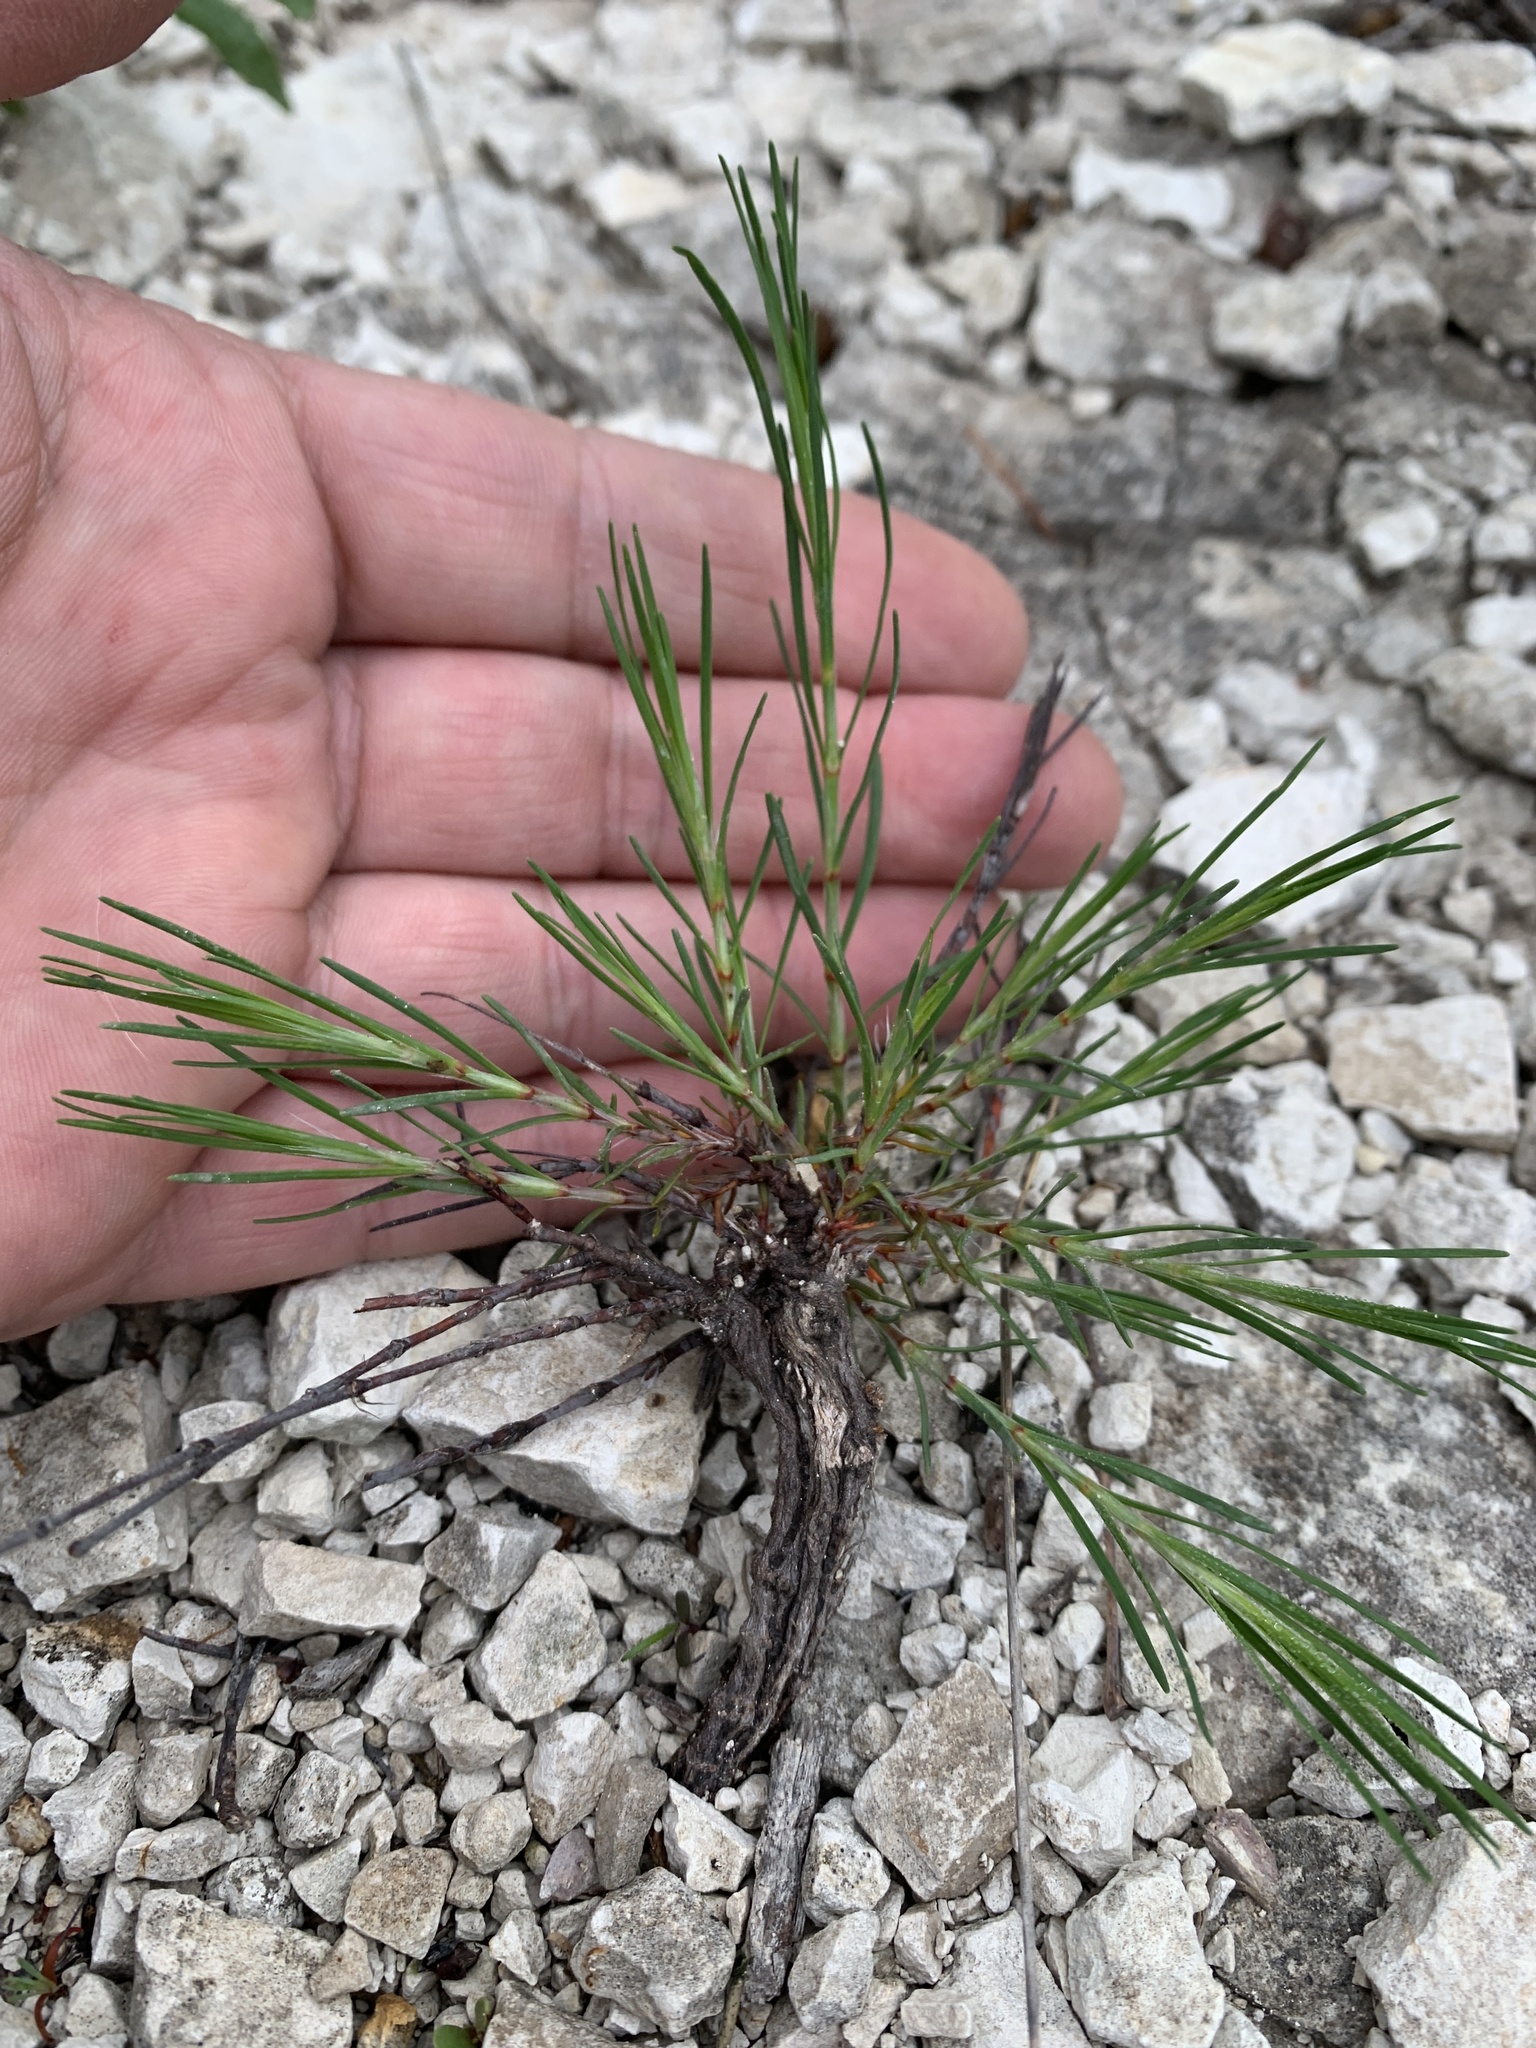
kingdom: Plantae
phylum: Tracheophyta
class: Magnoliopsida
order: Caryophyllales
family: Caryophyllaceae
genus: Paronychia
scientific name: Paronychia virginica
